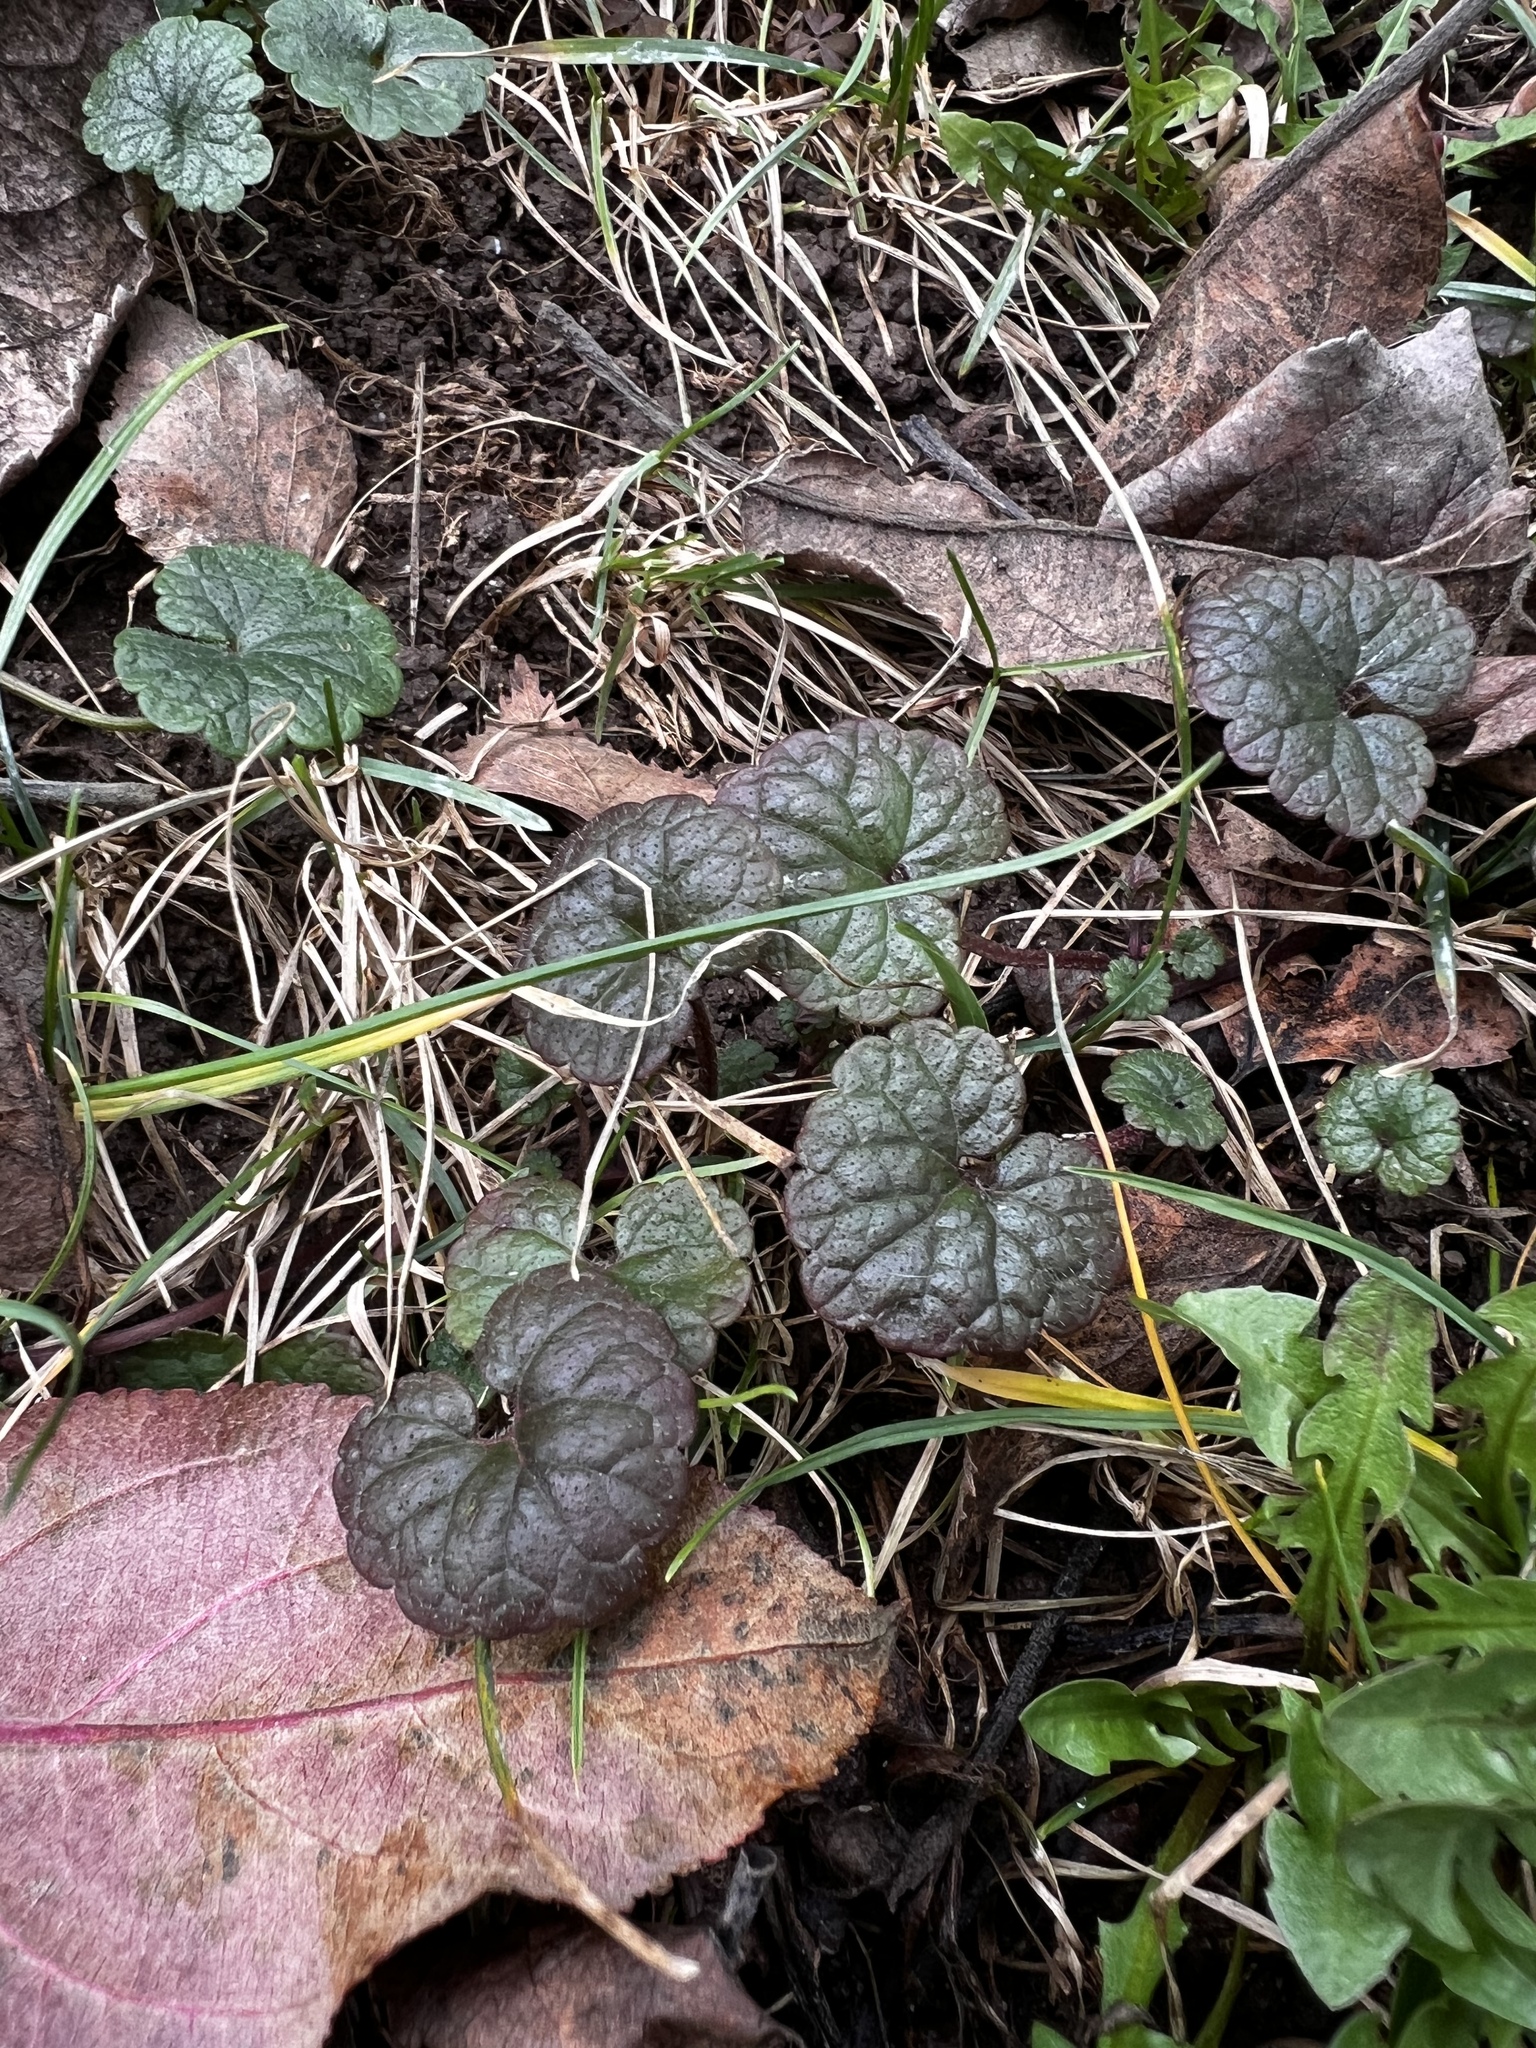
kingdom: Plantae
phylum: Tracheophyta
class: Magnoliopsida
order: Lamiales
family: Lamiaceae
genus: Glechoma
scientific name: Glechoma hederacea
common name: Ground ivy
